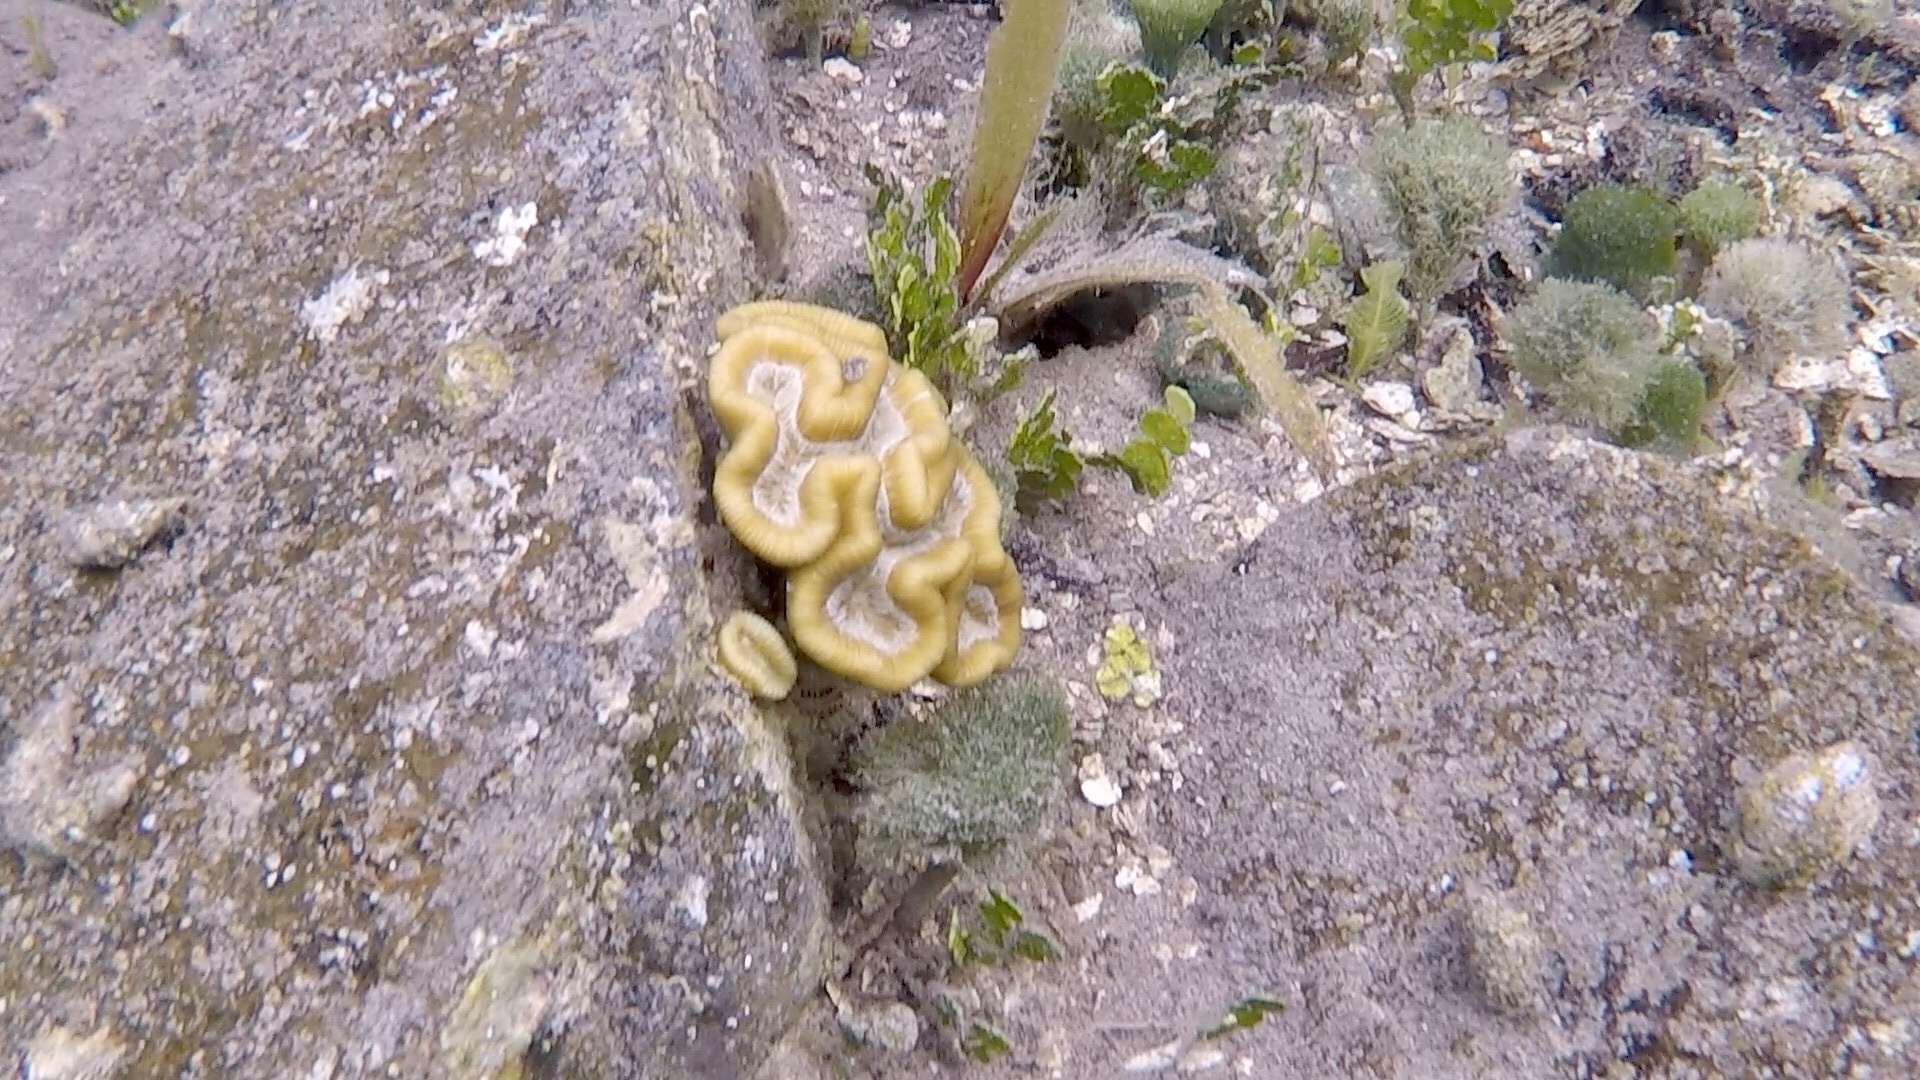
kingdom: Animalia
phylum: Cnidaria
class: Anthozoa
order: Scleractinia
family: Faviidae
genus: Manicina
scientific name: Manicina areolata
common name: Rose coral
